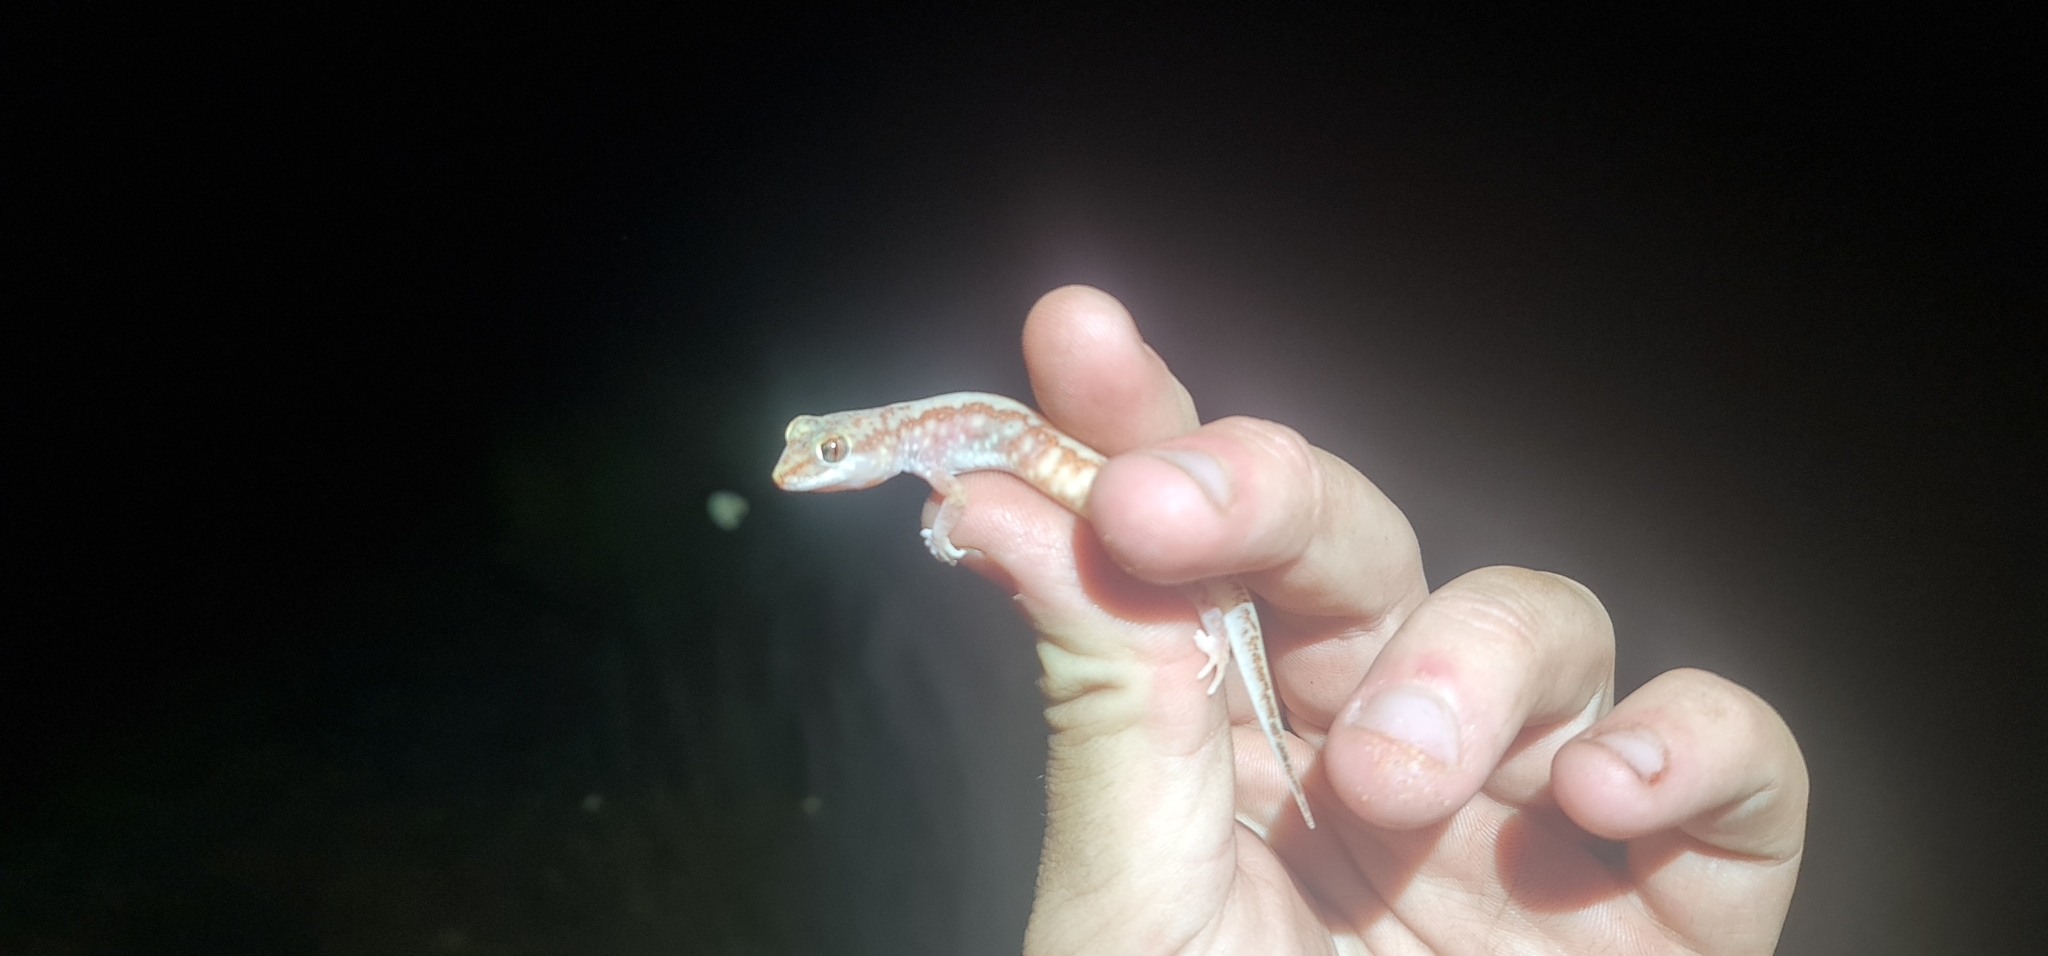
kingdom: Animalia
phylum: Chordata
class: Squamata
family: Diplodactylidae
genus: Lucasium
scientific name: Lucasium damaeum
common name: Beaded gecko
